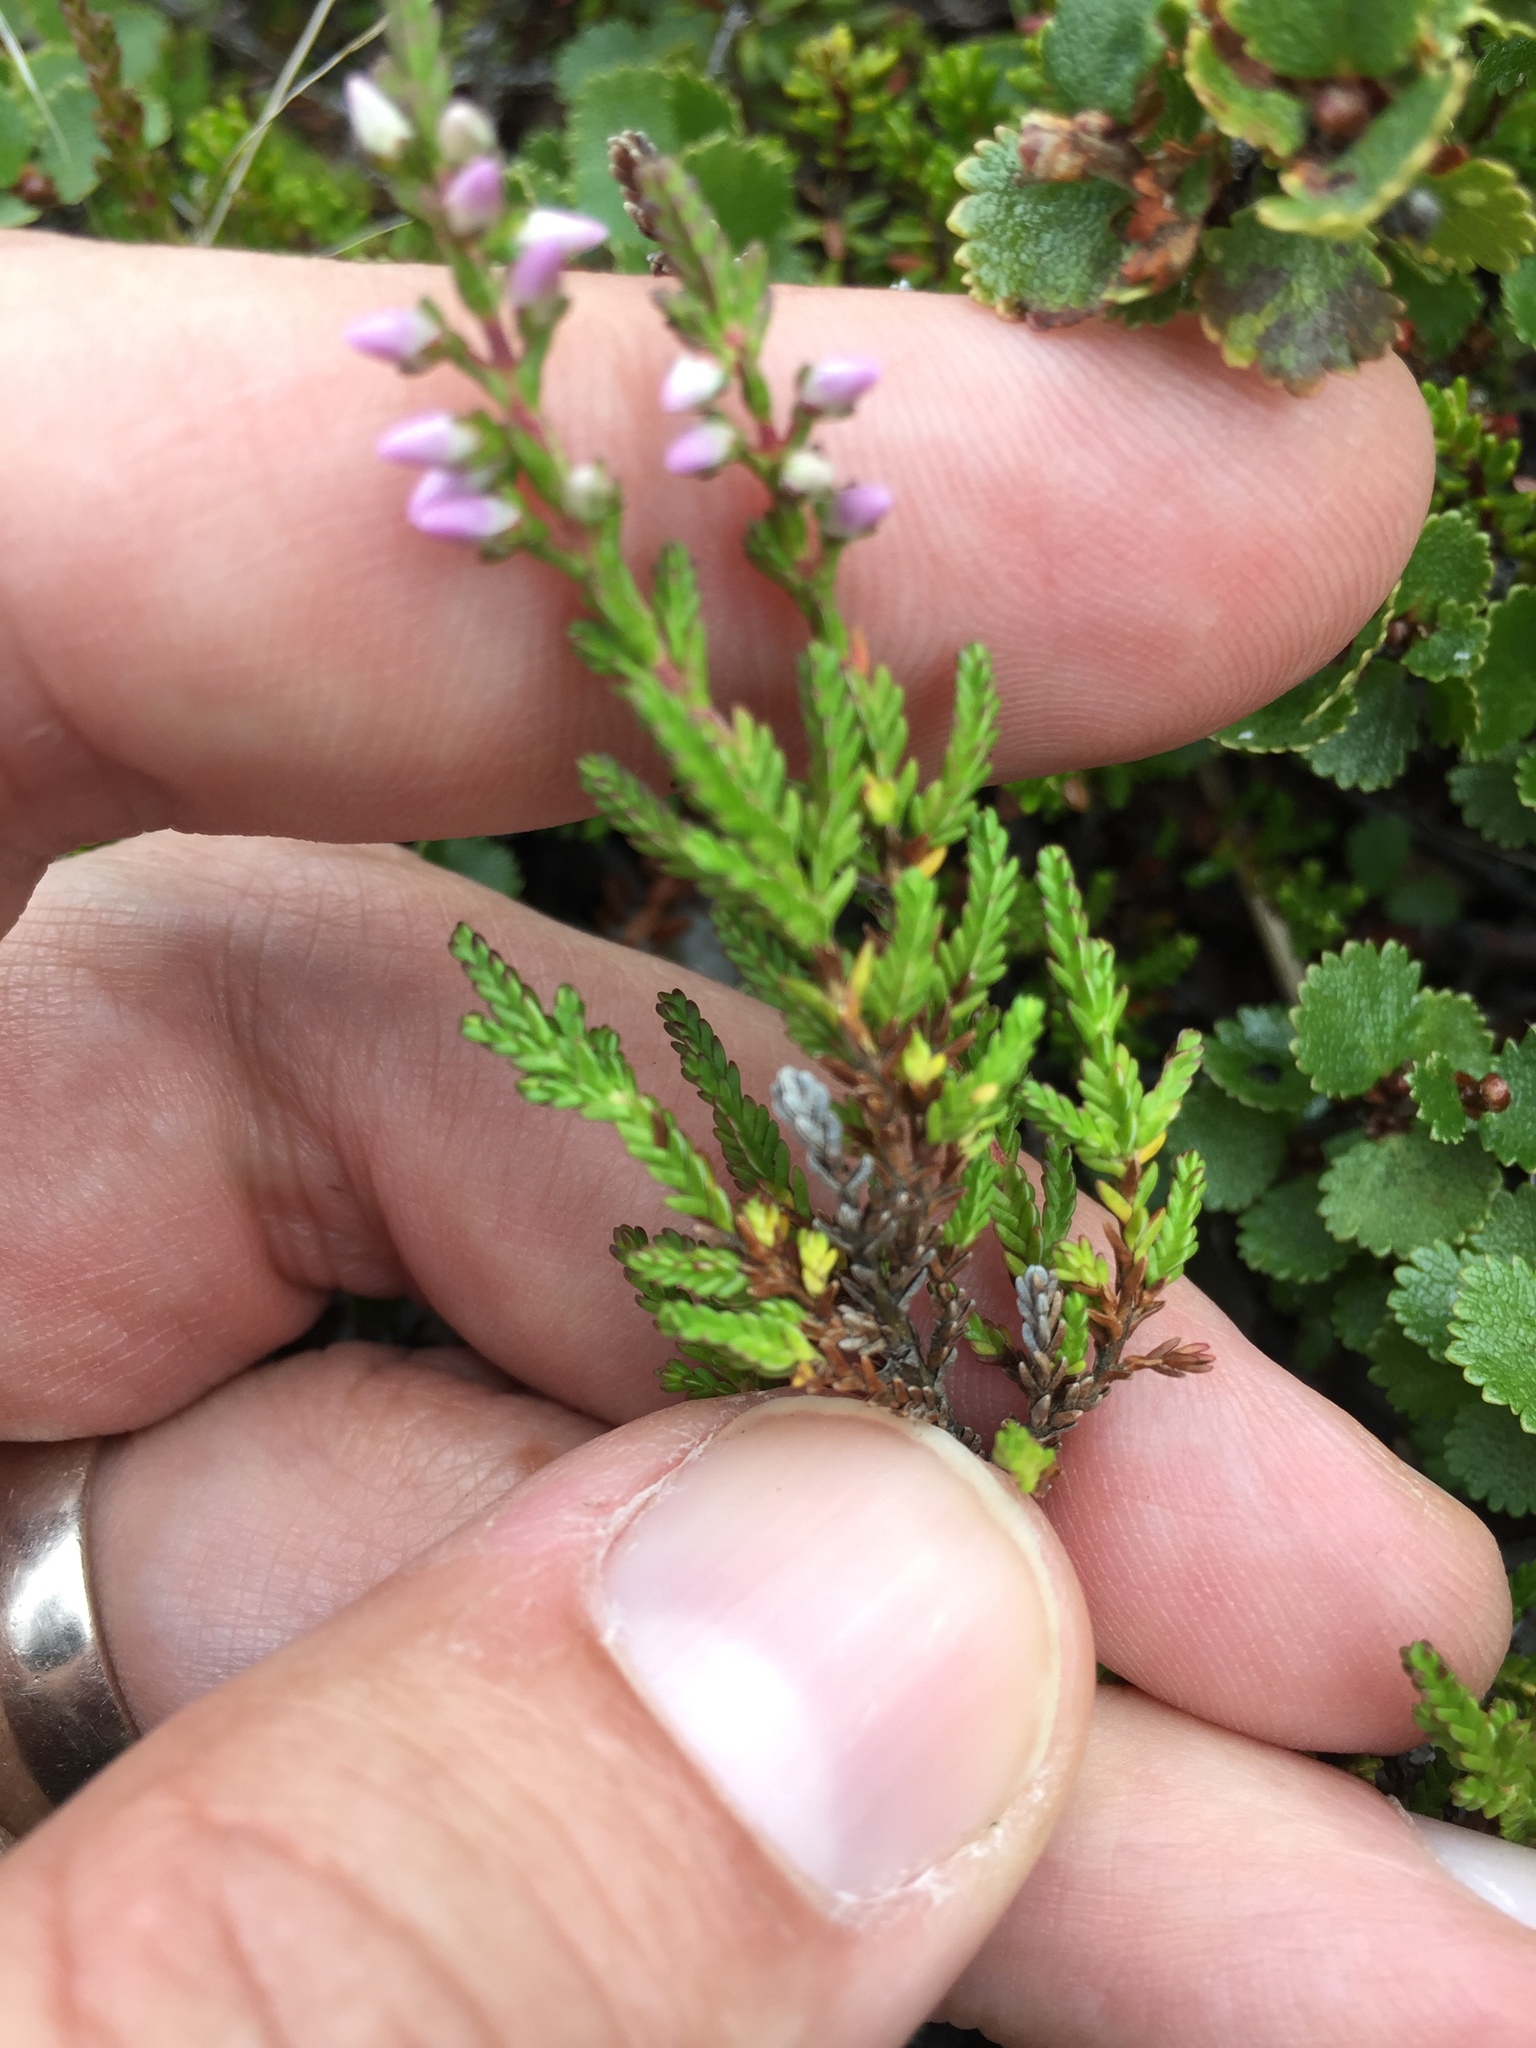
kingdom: Plantae
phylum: Tracheophyta
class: Magnoliopsida
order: Ericales
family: Ericaceae
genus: Calluna
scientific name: Calluna vulgaris
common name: Heather
